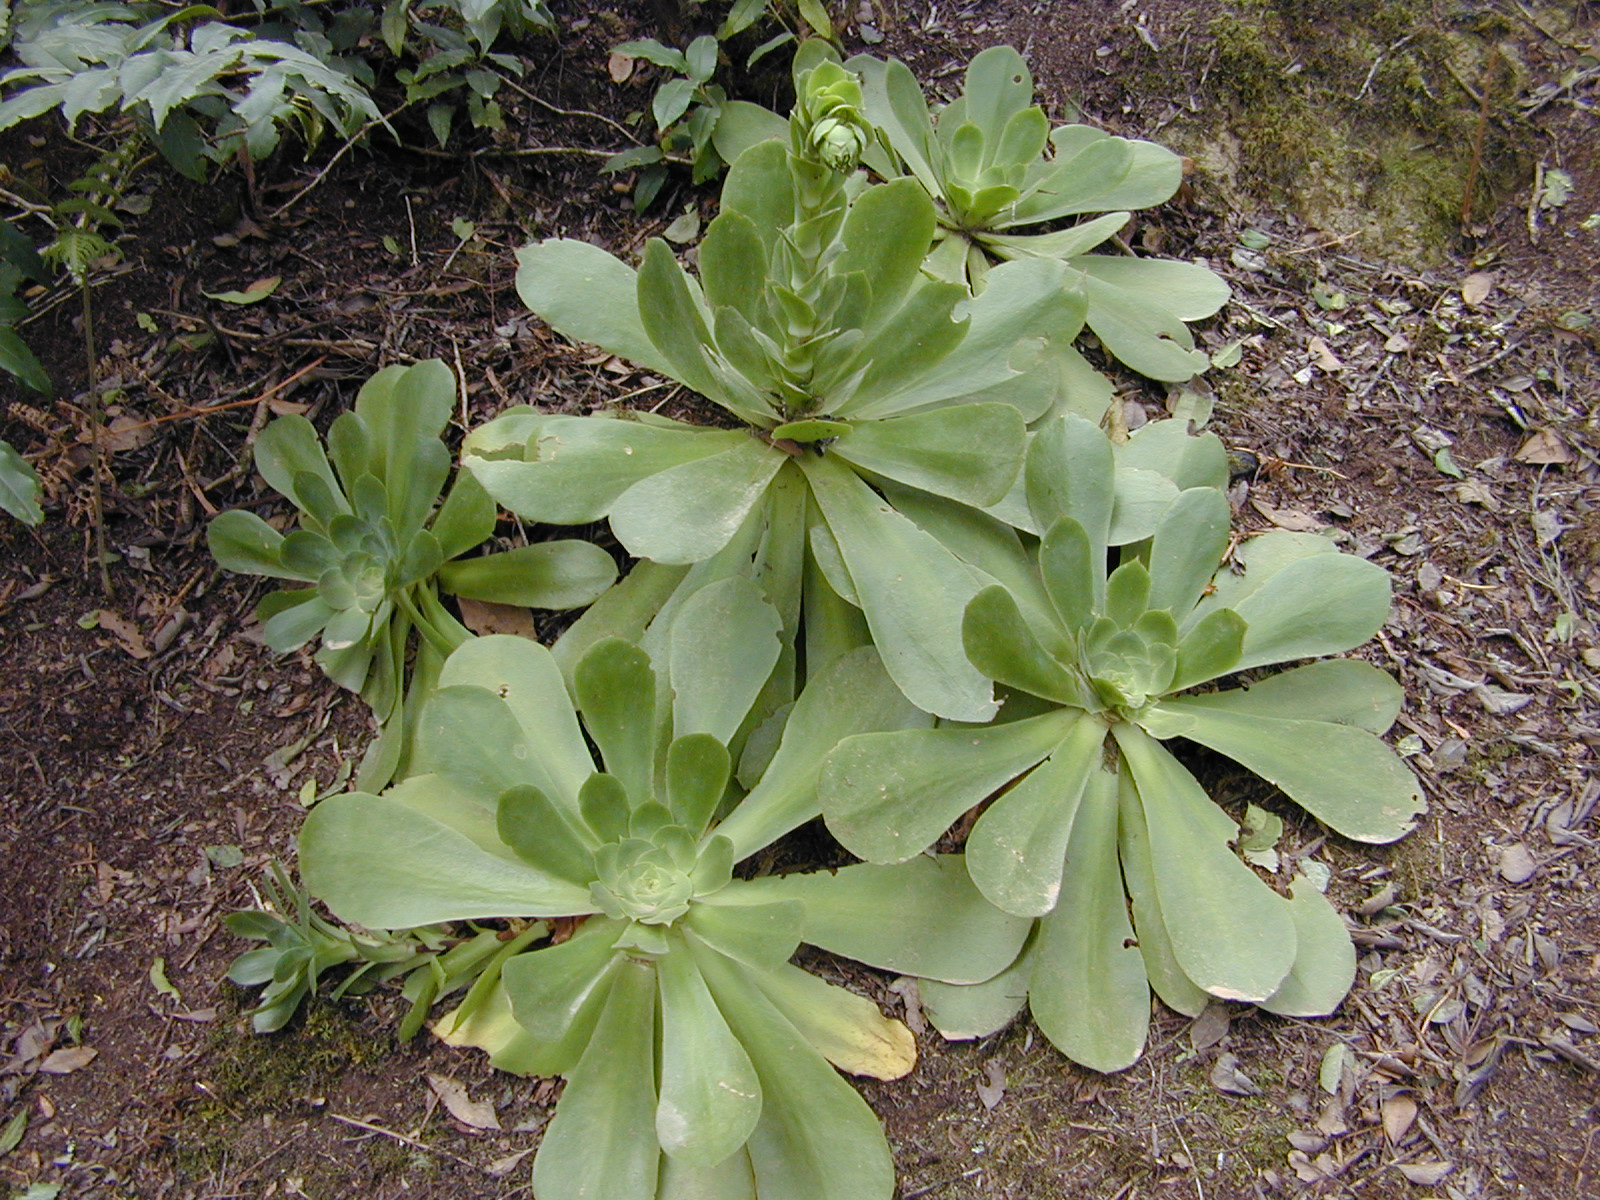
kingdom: Plantae
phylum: Tracheophyta
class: Magnoliopsida
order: Saxifragales
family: Crassulaceae
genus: Aeonium
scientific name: Aeonium cuneatum
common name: Aeonium
